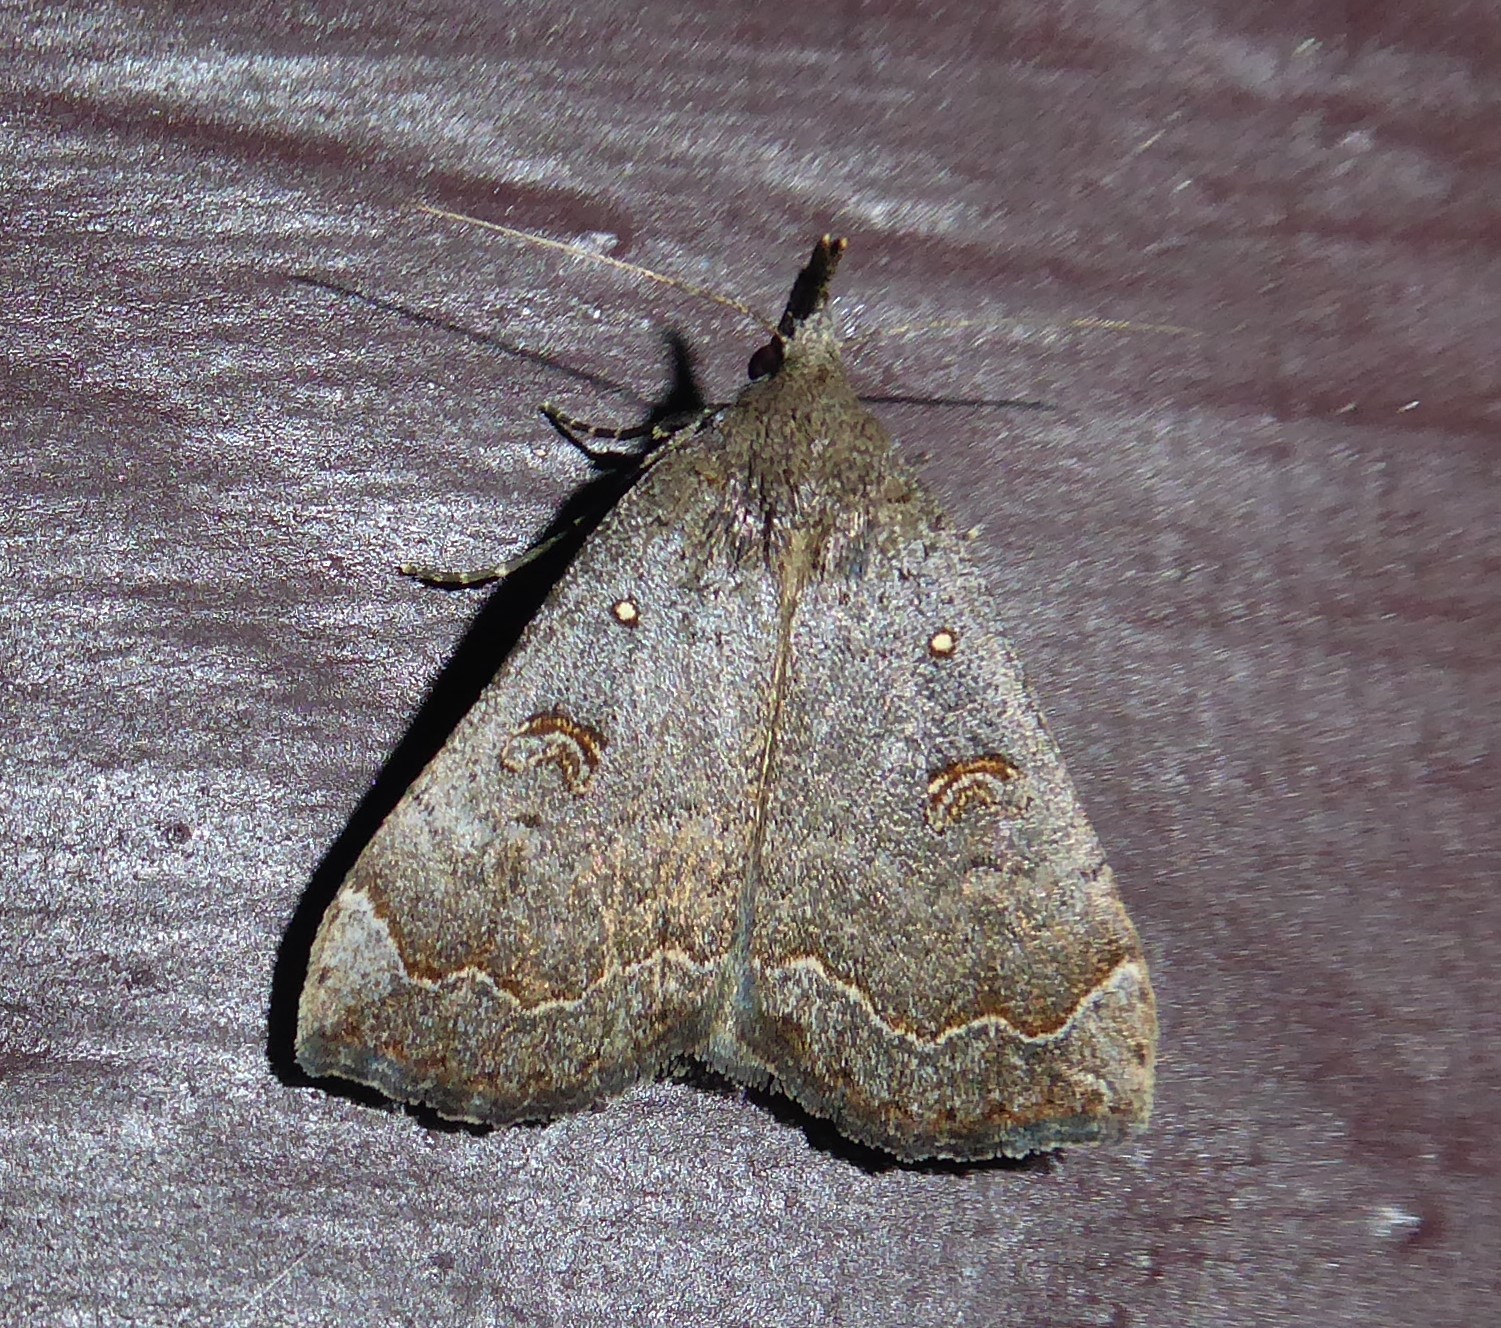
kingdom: Animalia
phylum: Arthropoda
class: Insecta
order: Lepidoptera
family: Erebidae
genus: Rhapsa
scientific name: Rhapsa scotosialis
